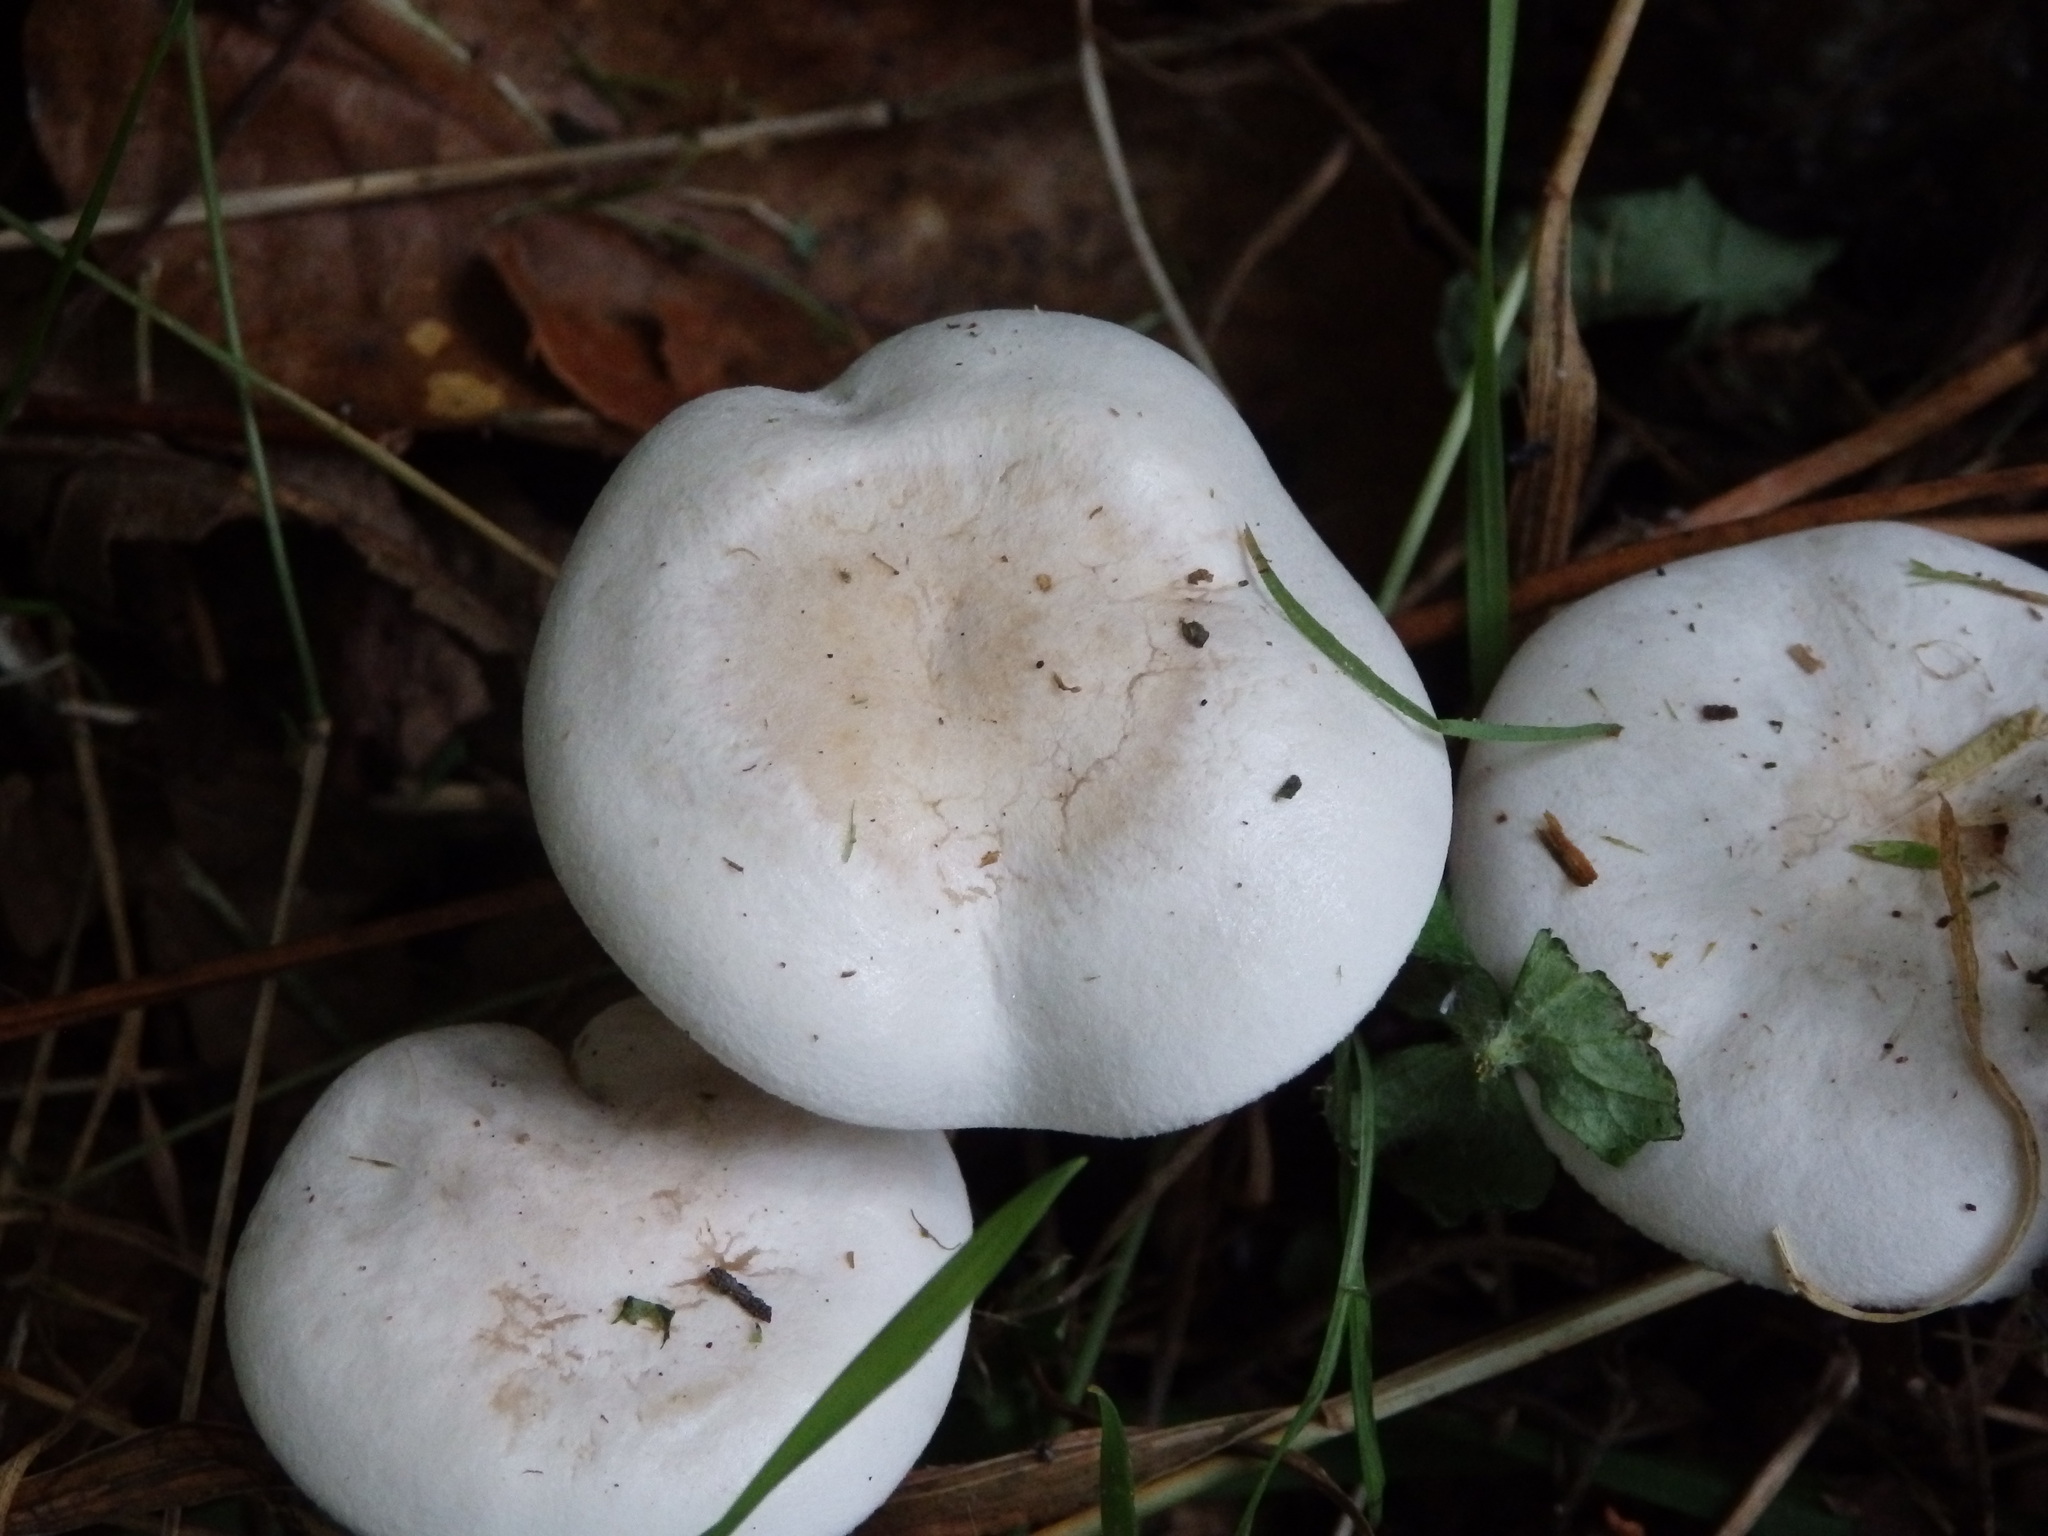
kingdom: Fungi
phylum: Basidiomycota
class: Agaricomycetes
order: Agaricales
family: Tricholomataceae
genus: Leucocybe
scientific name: Leucocybe connata
